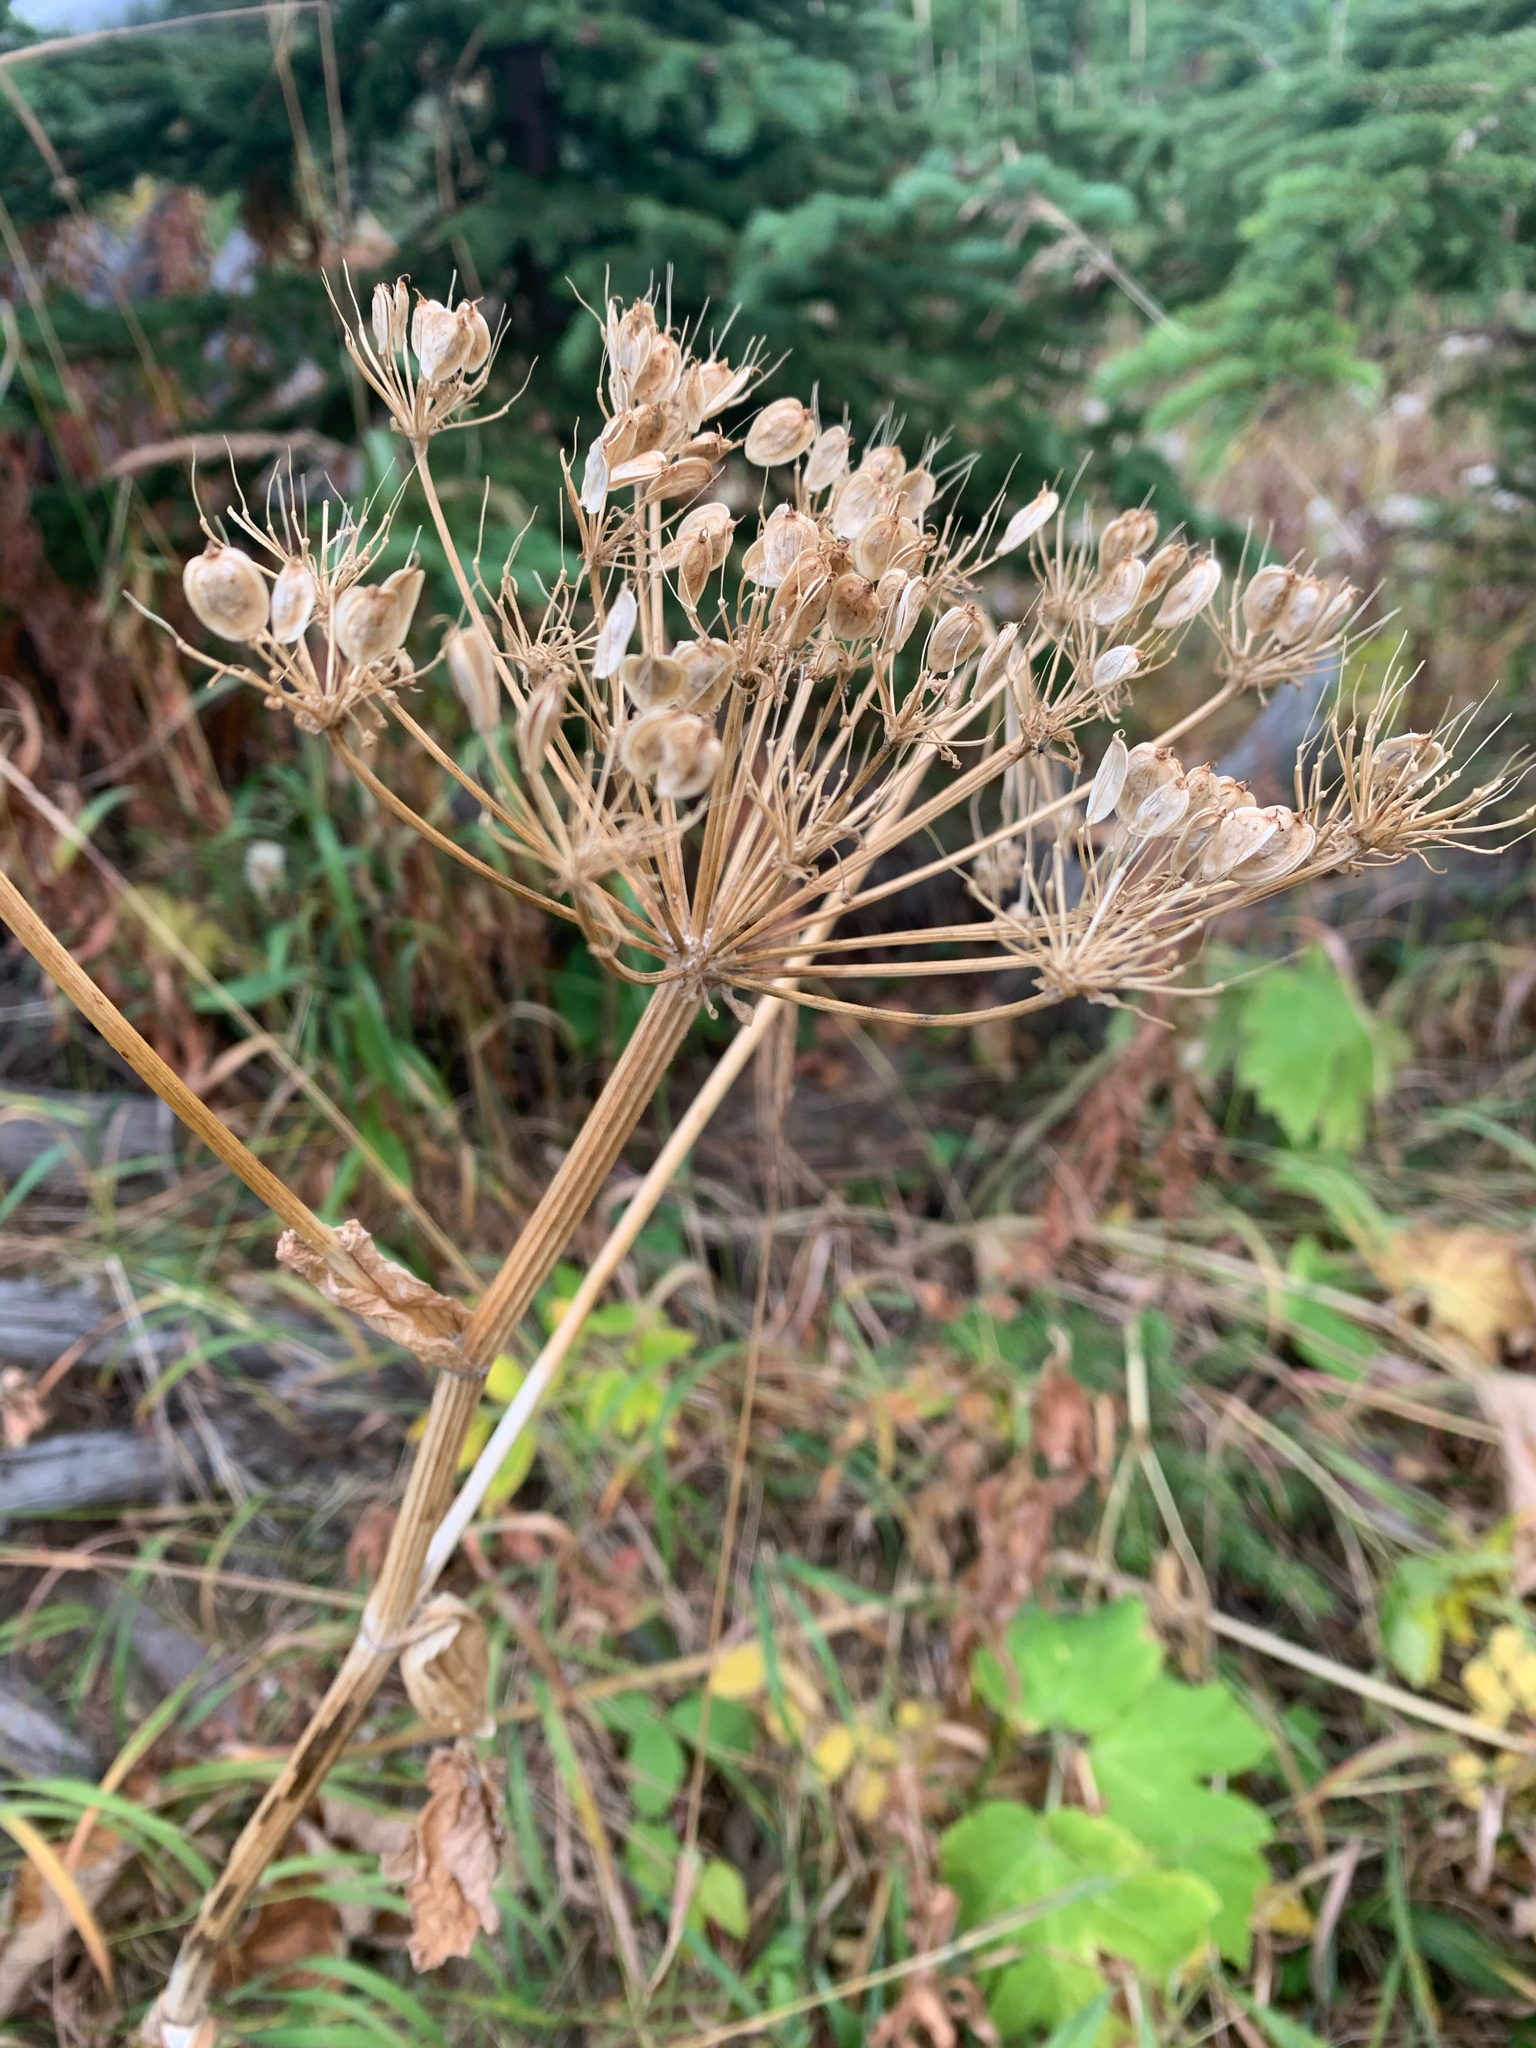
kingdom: Plantae
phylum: Tracheophyta
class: Magnoliopsida
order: Apiales
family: Apiaceae
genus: Heracleum
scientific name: Heracleum maximum
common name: American cow parsnip
